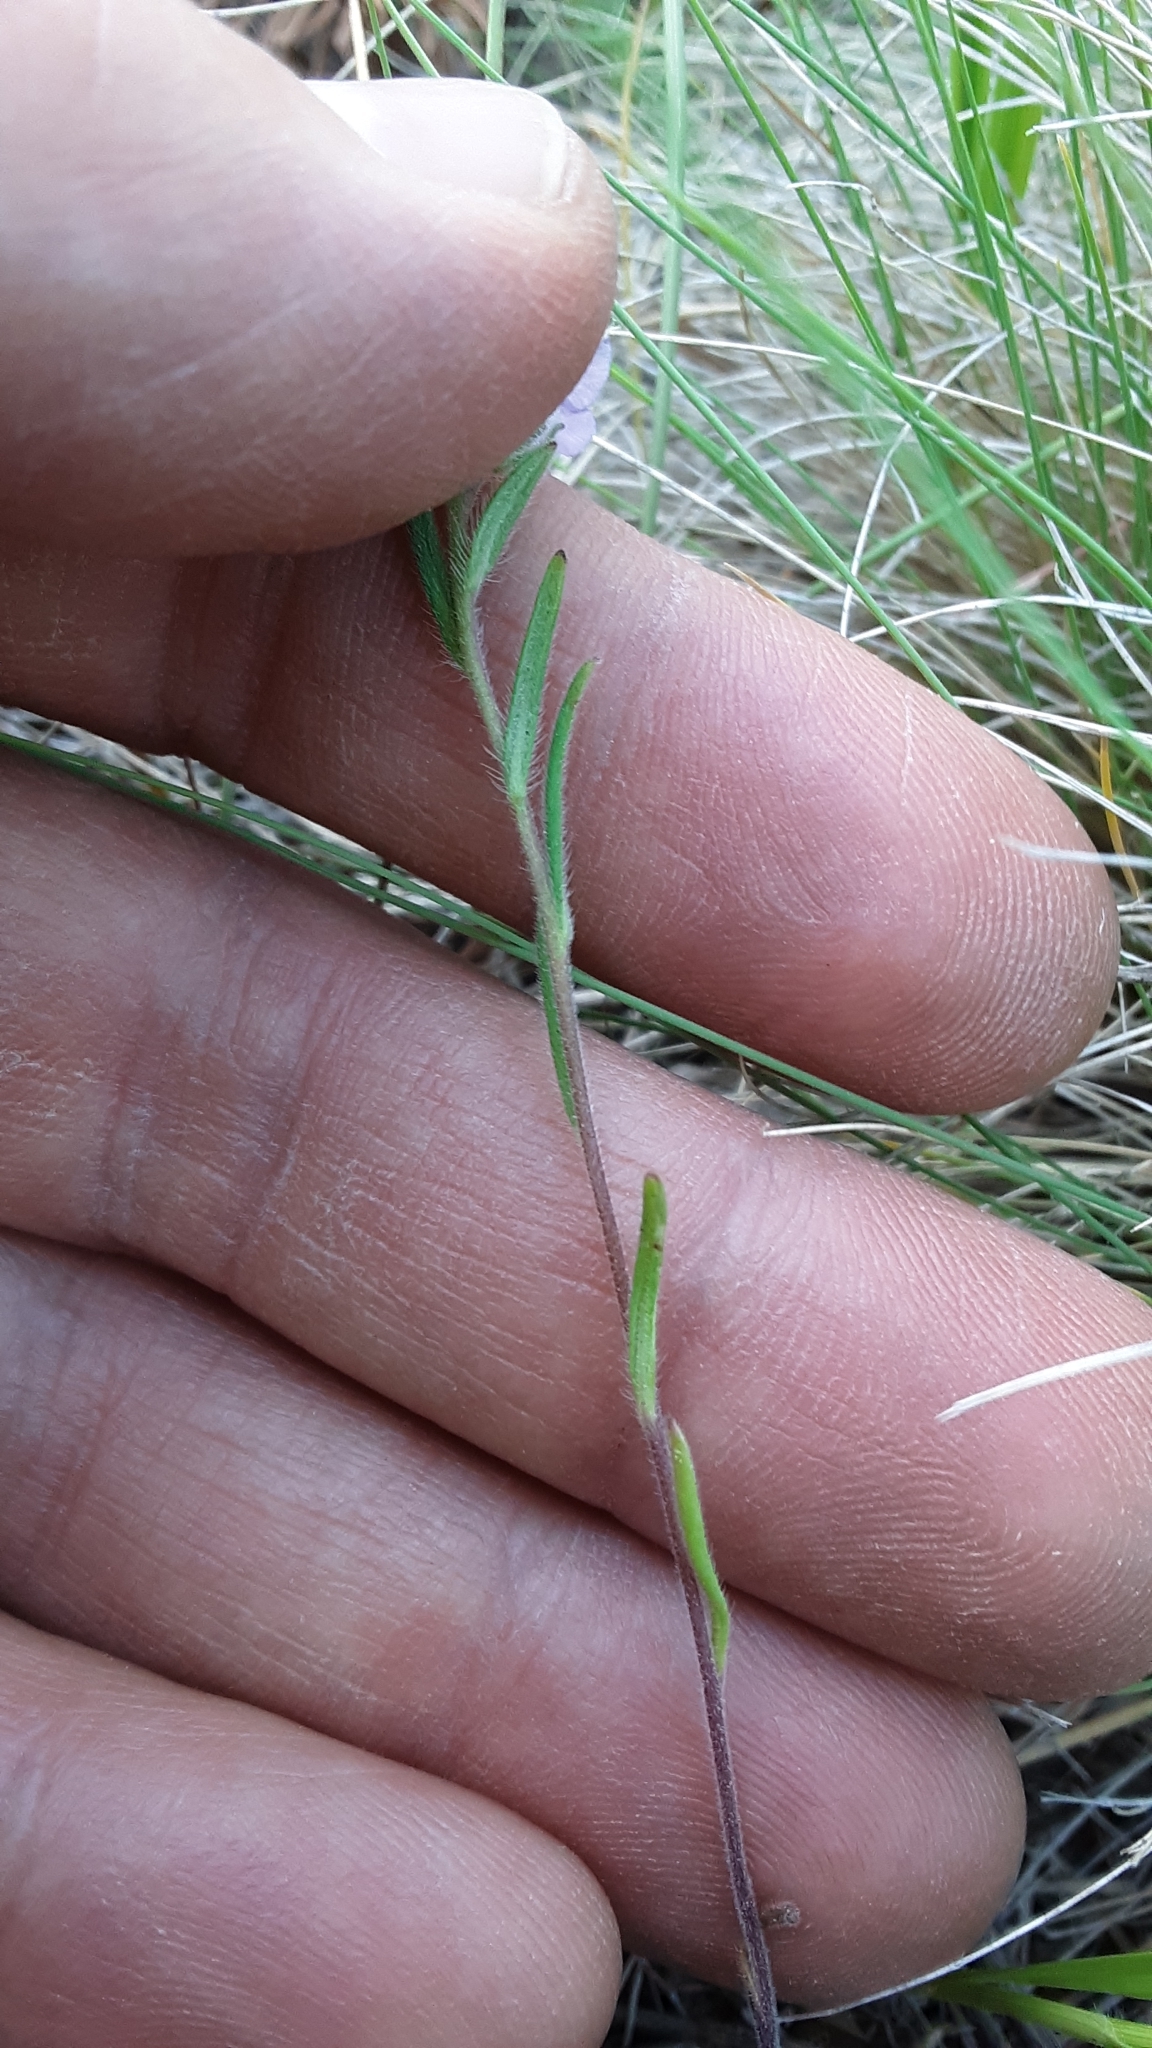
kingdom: Plantae
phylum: Tracheophyta
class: Magnoliopsida
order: Boraginales
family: Hydrophyllaceae
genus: Phacelia
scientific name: Phacelia linearis
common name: Linear-leaved phacelia
